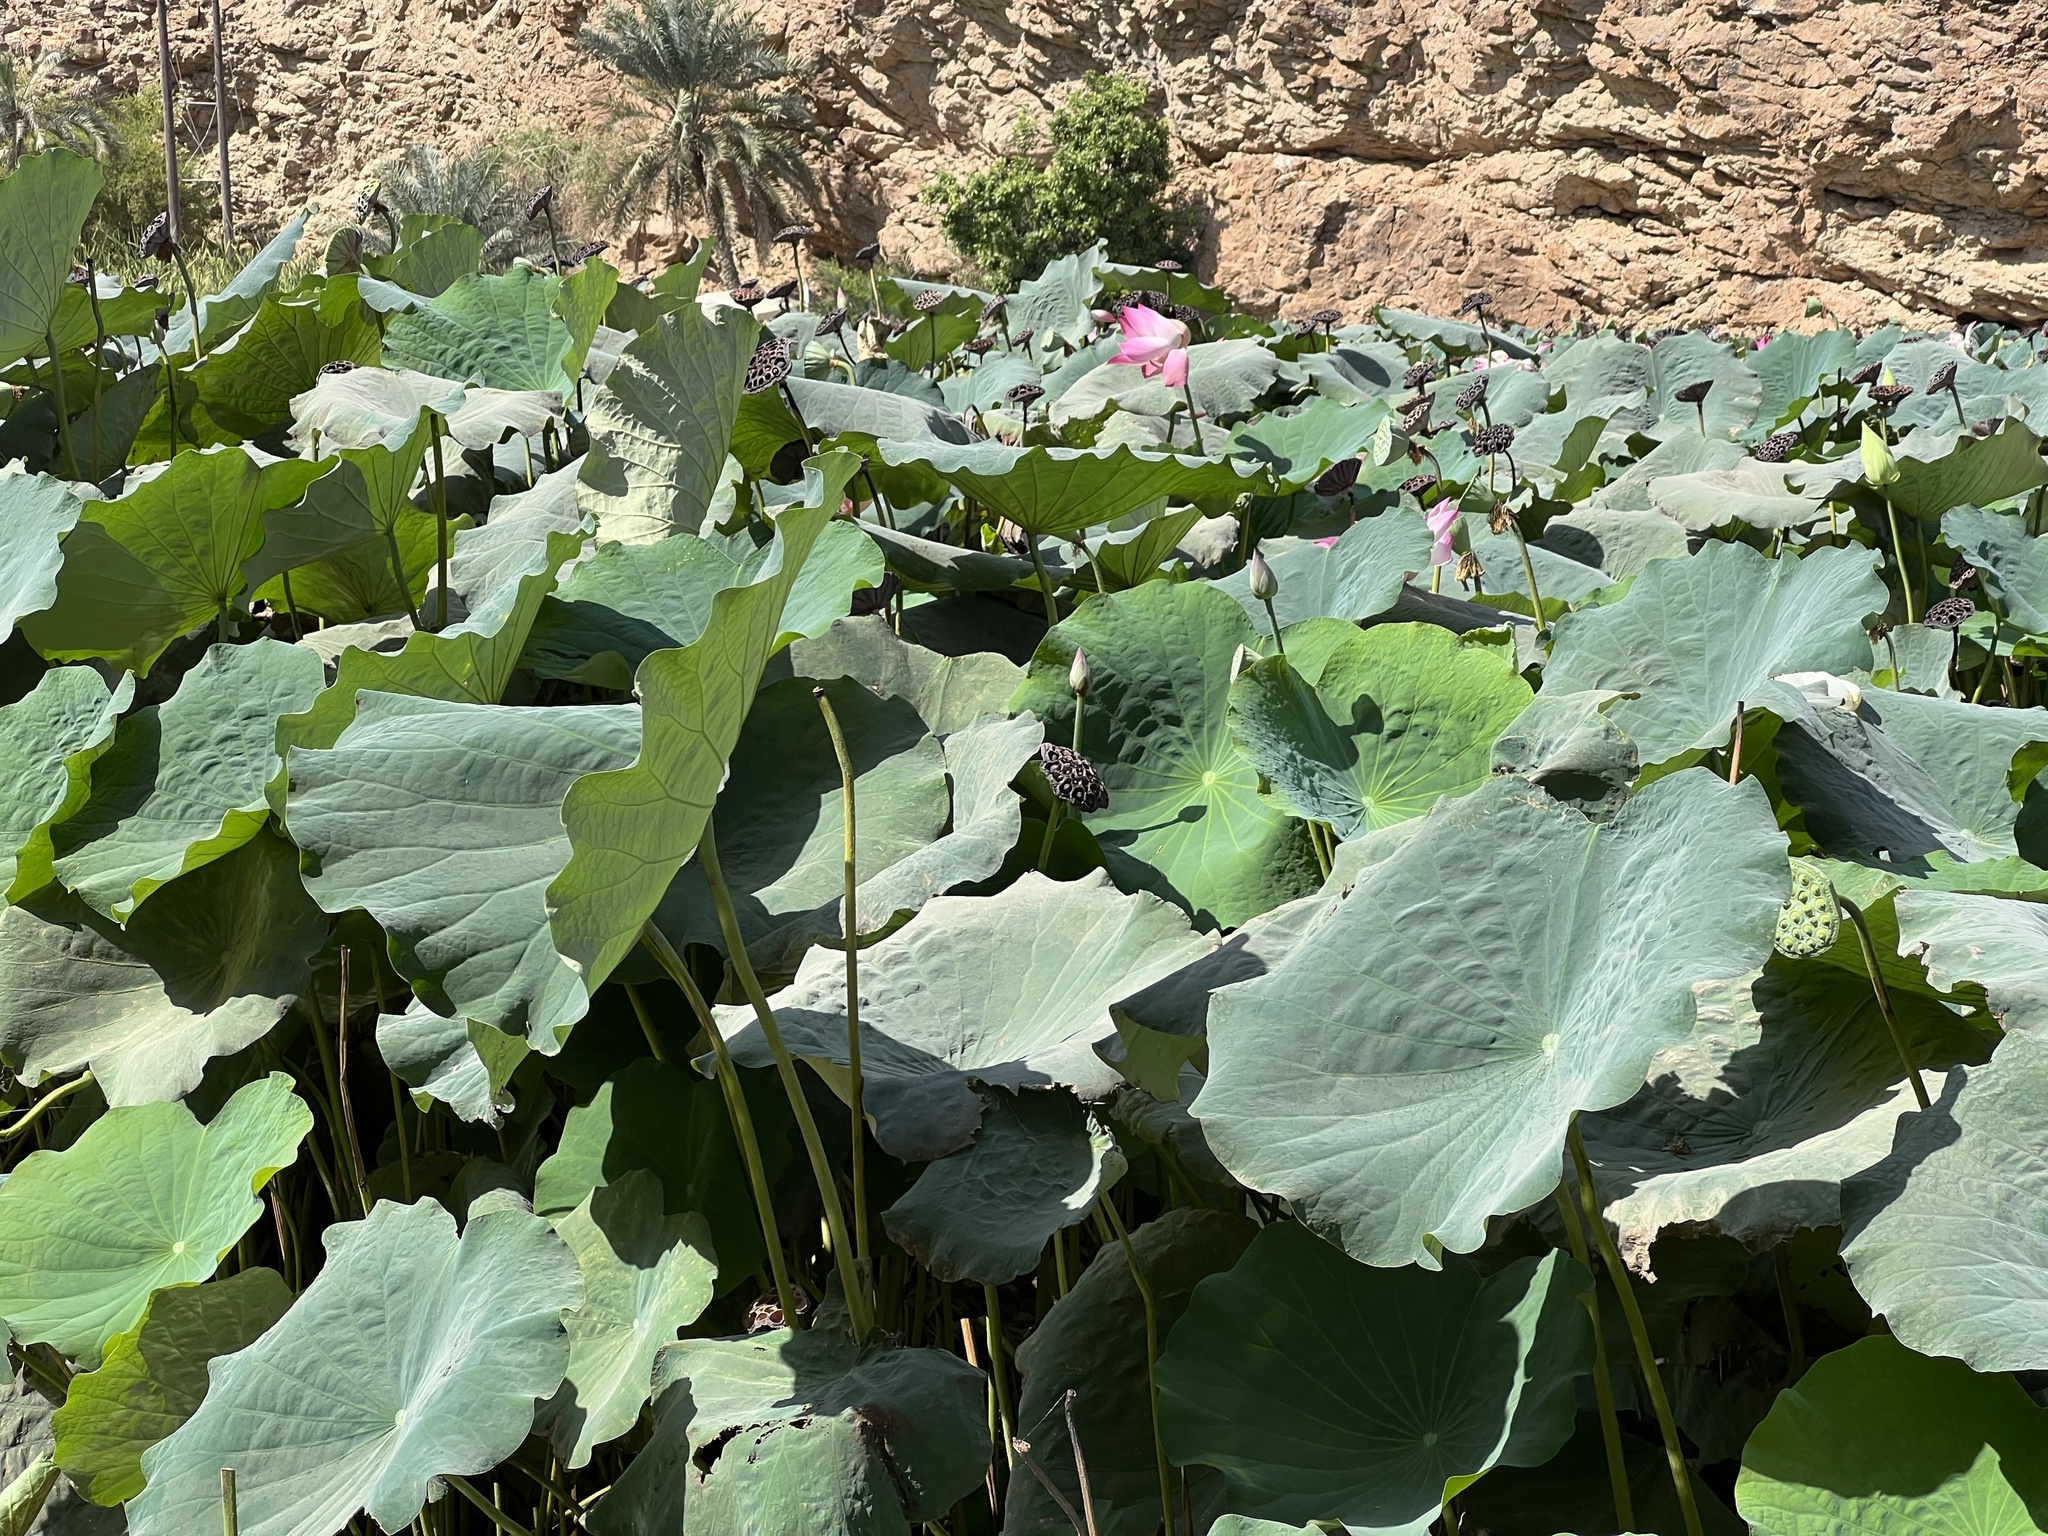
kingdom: Plantae
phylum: Tracheophyta
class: Magnoliopsida
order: Proteales
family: Nelumbonaceae
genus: Nelumbo
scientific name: Nelumbo nucifera
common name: Sacred lotus
